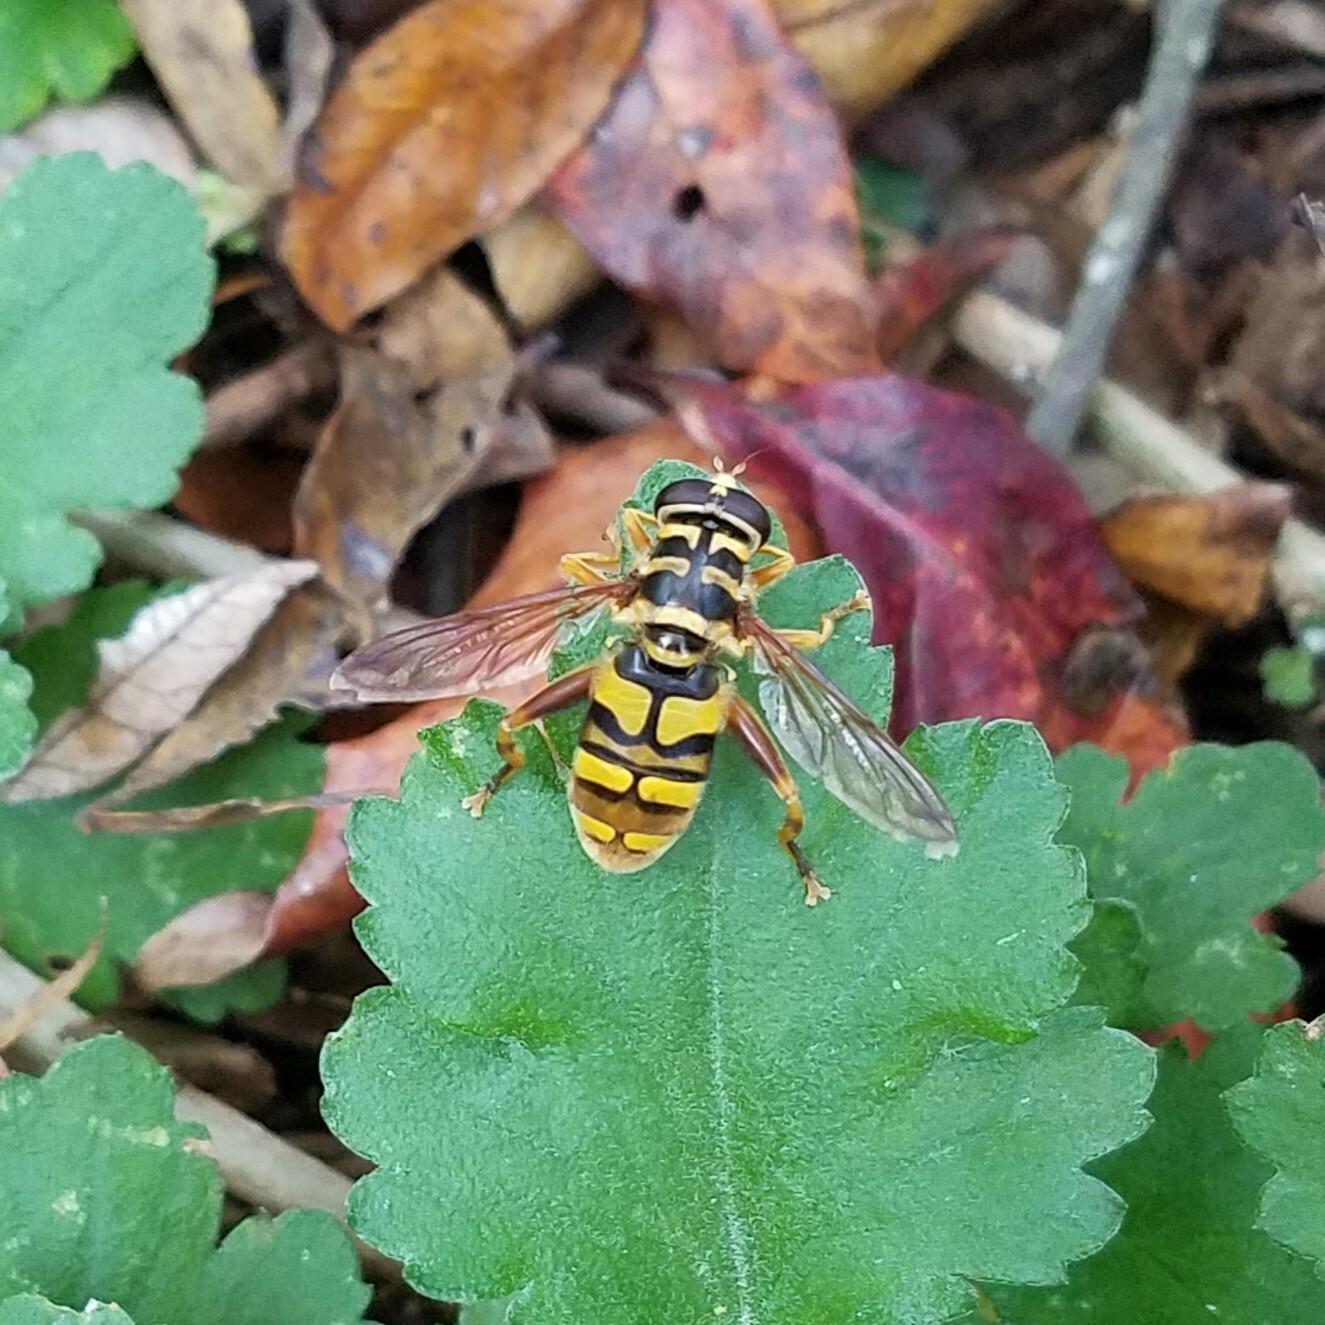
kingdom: Animalia
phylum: Arthropoda
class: Insecta
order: Diptera
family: Syrphidae
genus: Milesia
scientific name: Milesia virginiensis
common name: Virginia giant
